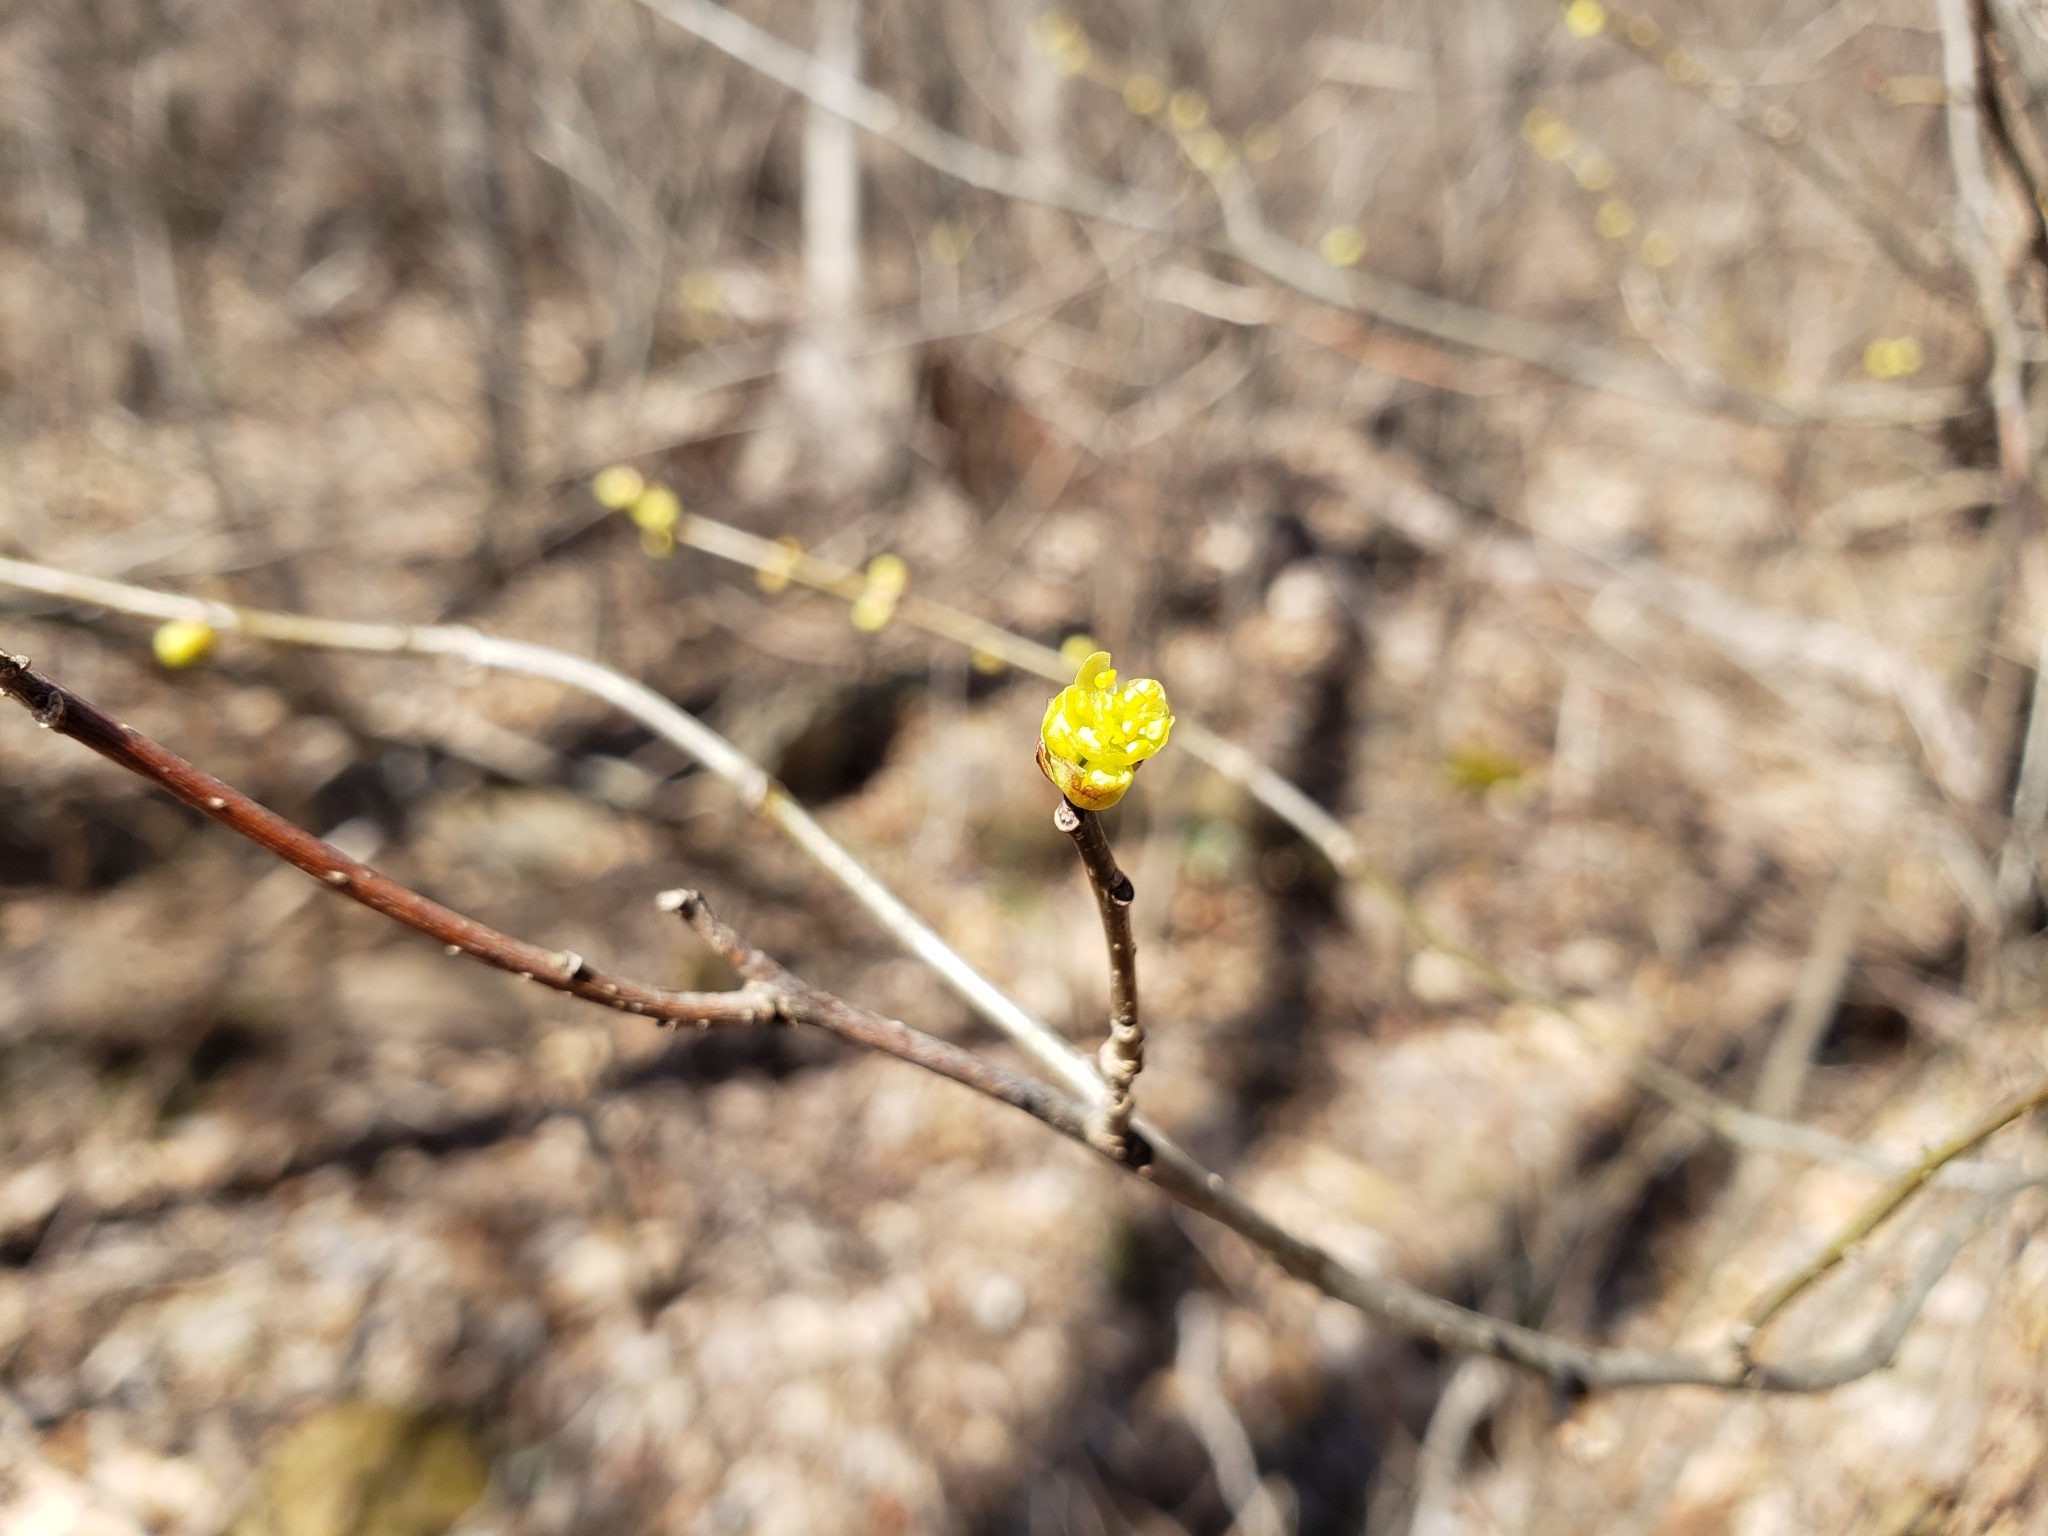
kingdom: Plantae
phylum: Tracheophyta
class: Magnoliopsida
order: Laurales
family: Lauraceae
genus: Lindera
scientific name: Lindera benzoin
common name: Spicebush
